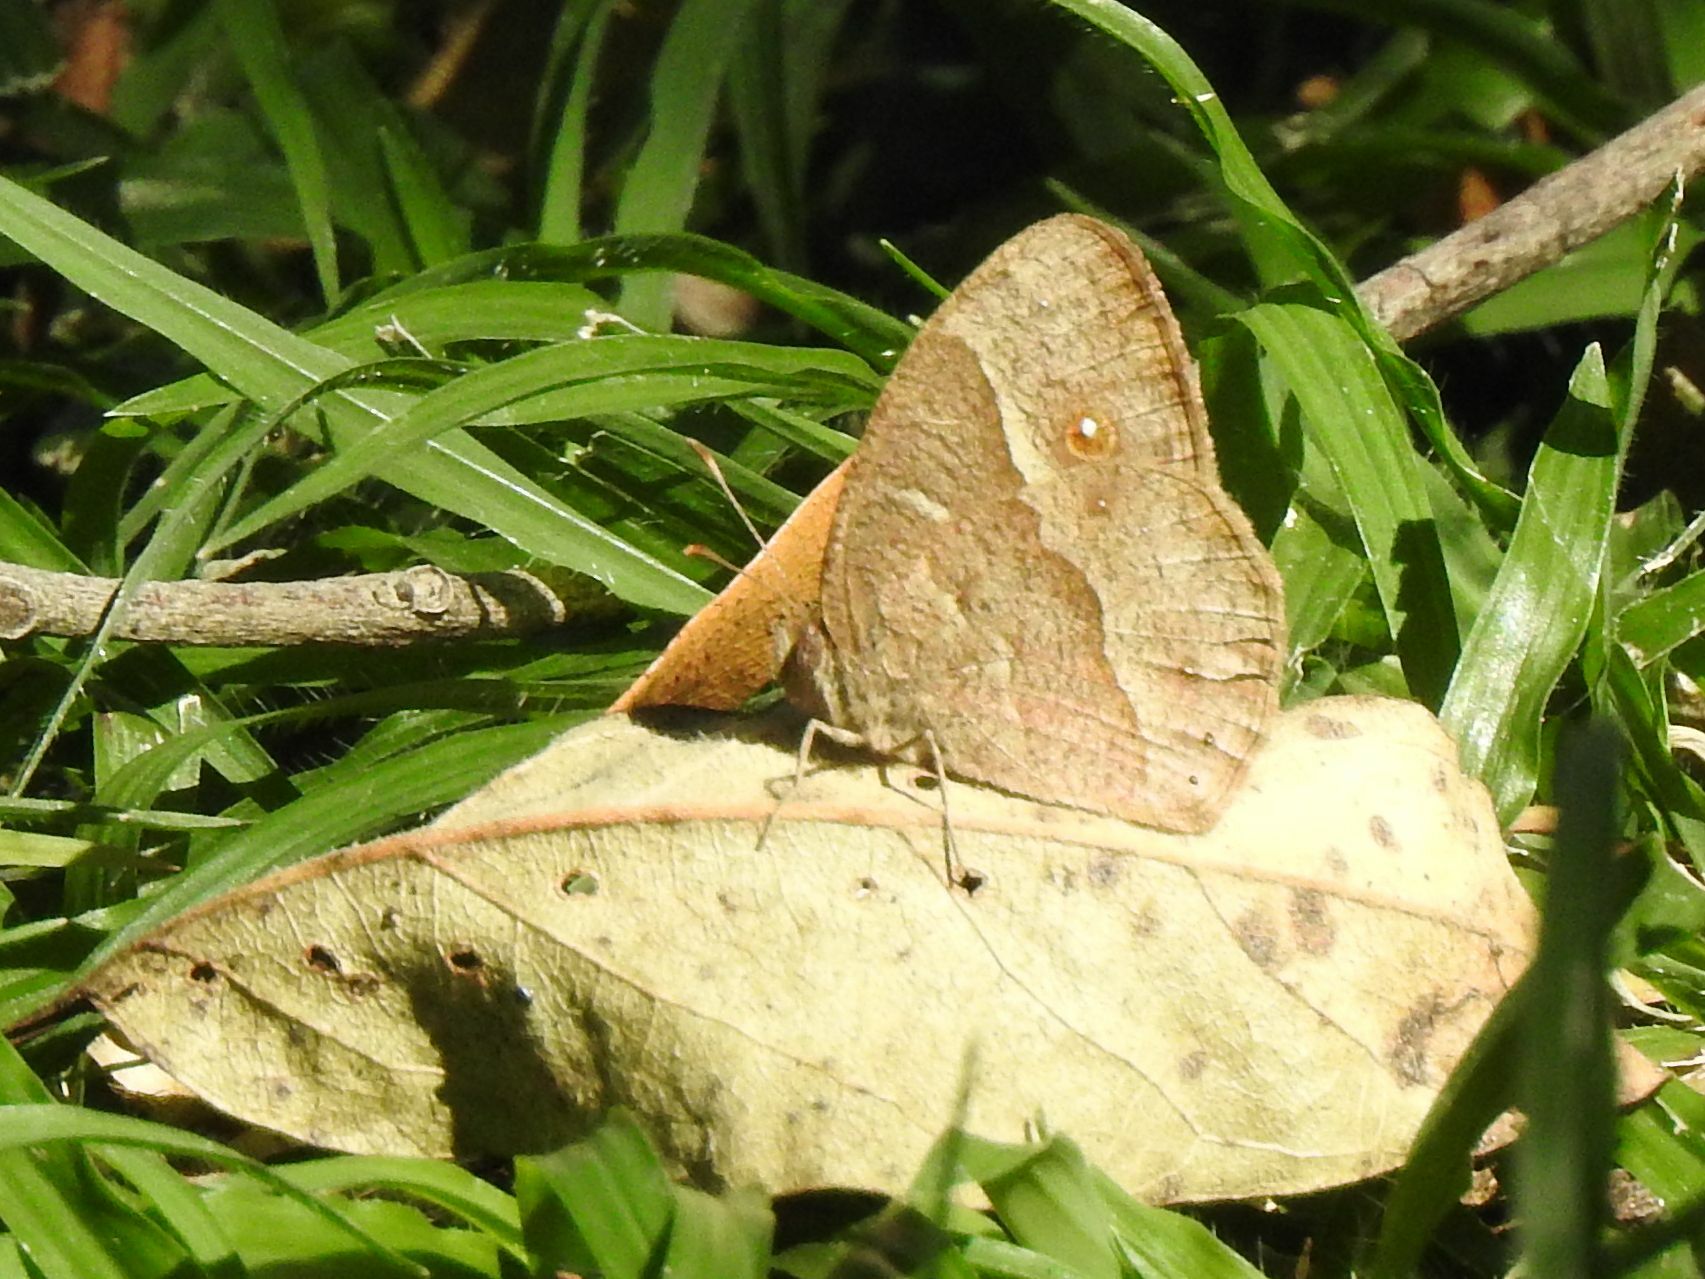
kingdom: Animalia
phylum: Arthropoda
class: Insecta
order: Lepidoptera
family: Nymphalidae
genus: Mycalesis
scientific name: Mycalesis anynana
